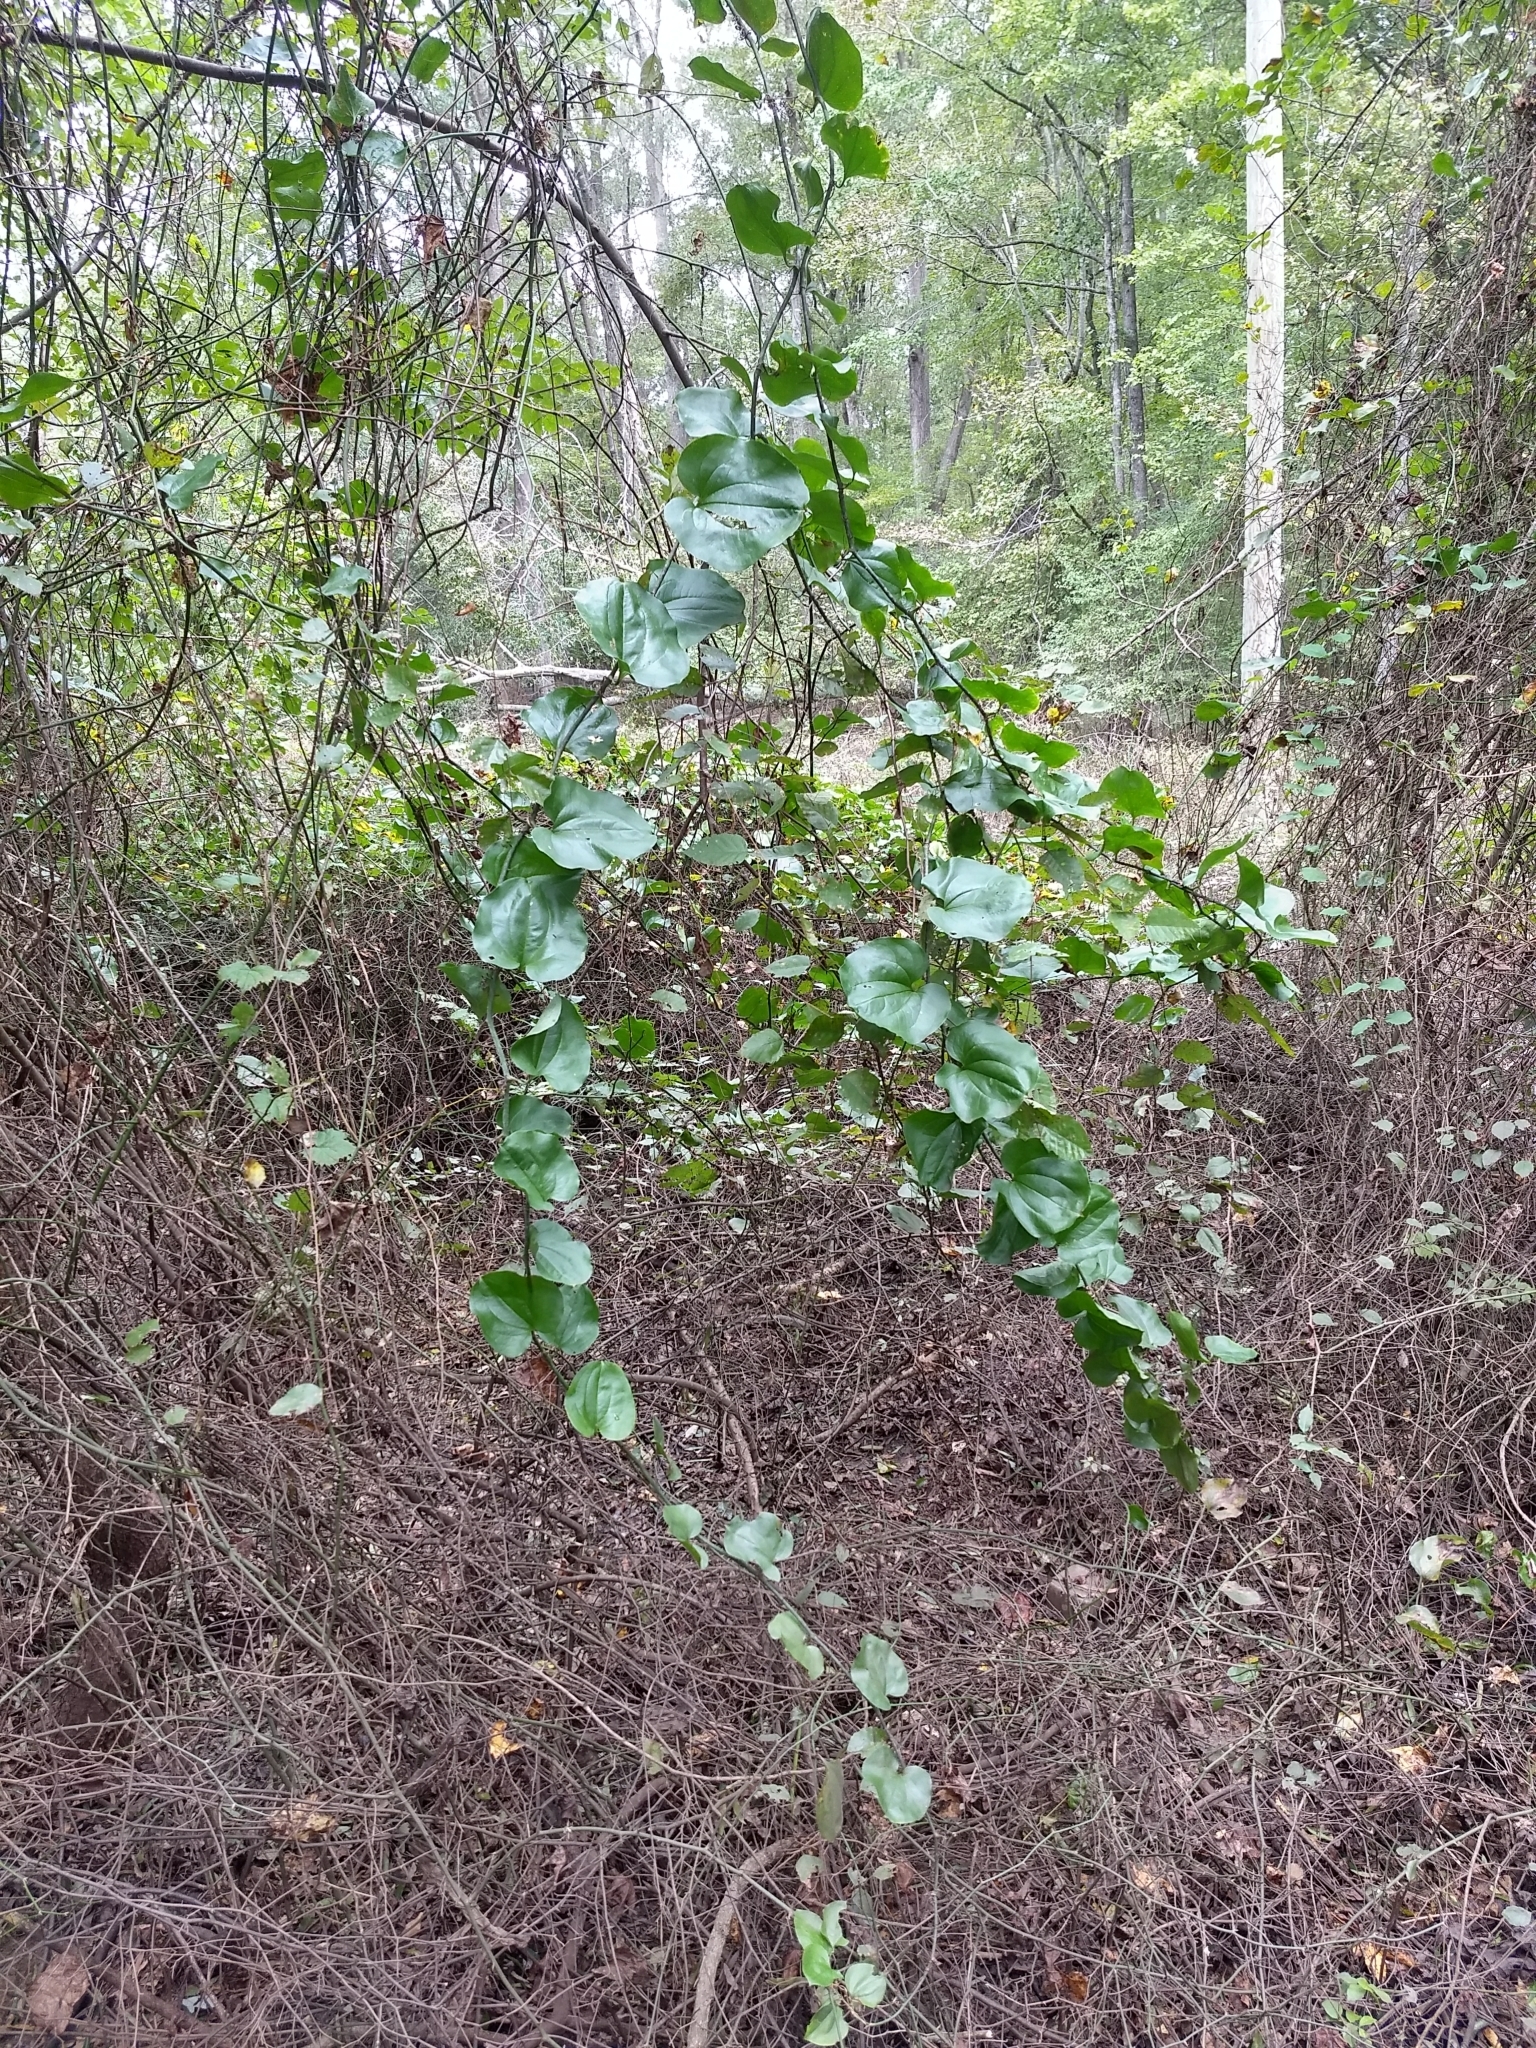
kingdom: Plantae
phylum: Tracheophyta
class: Liliopsida
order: Liliales
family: Smilacaceae
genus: Smilax
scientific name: Smilax rotundifolia
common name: Bullbriar
